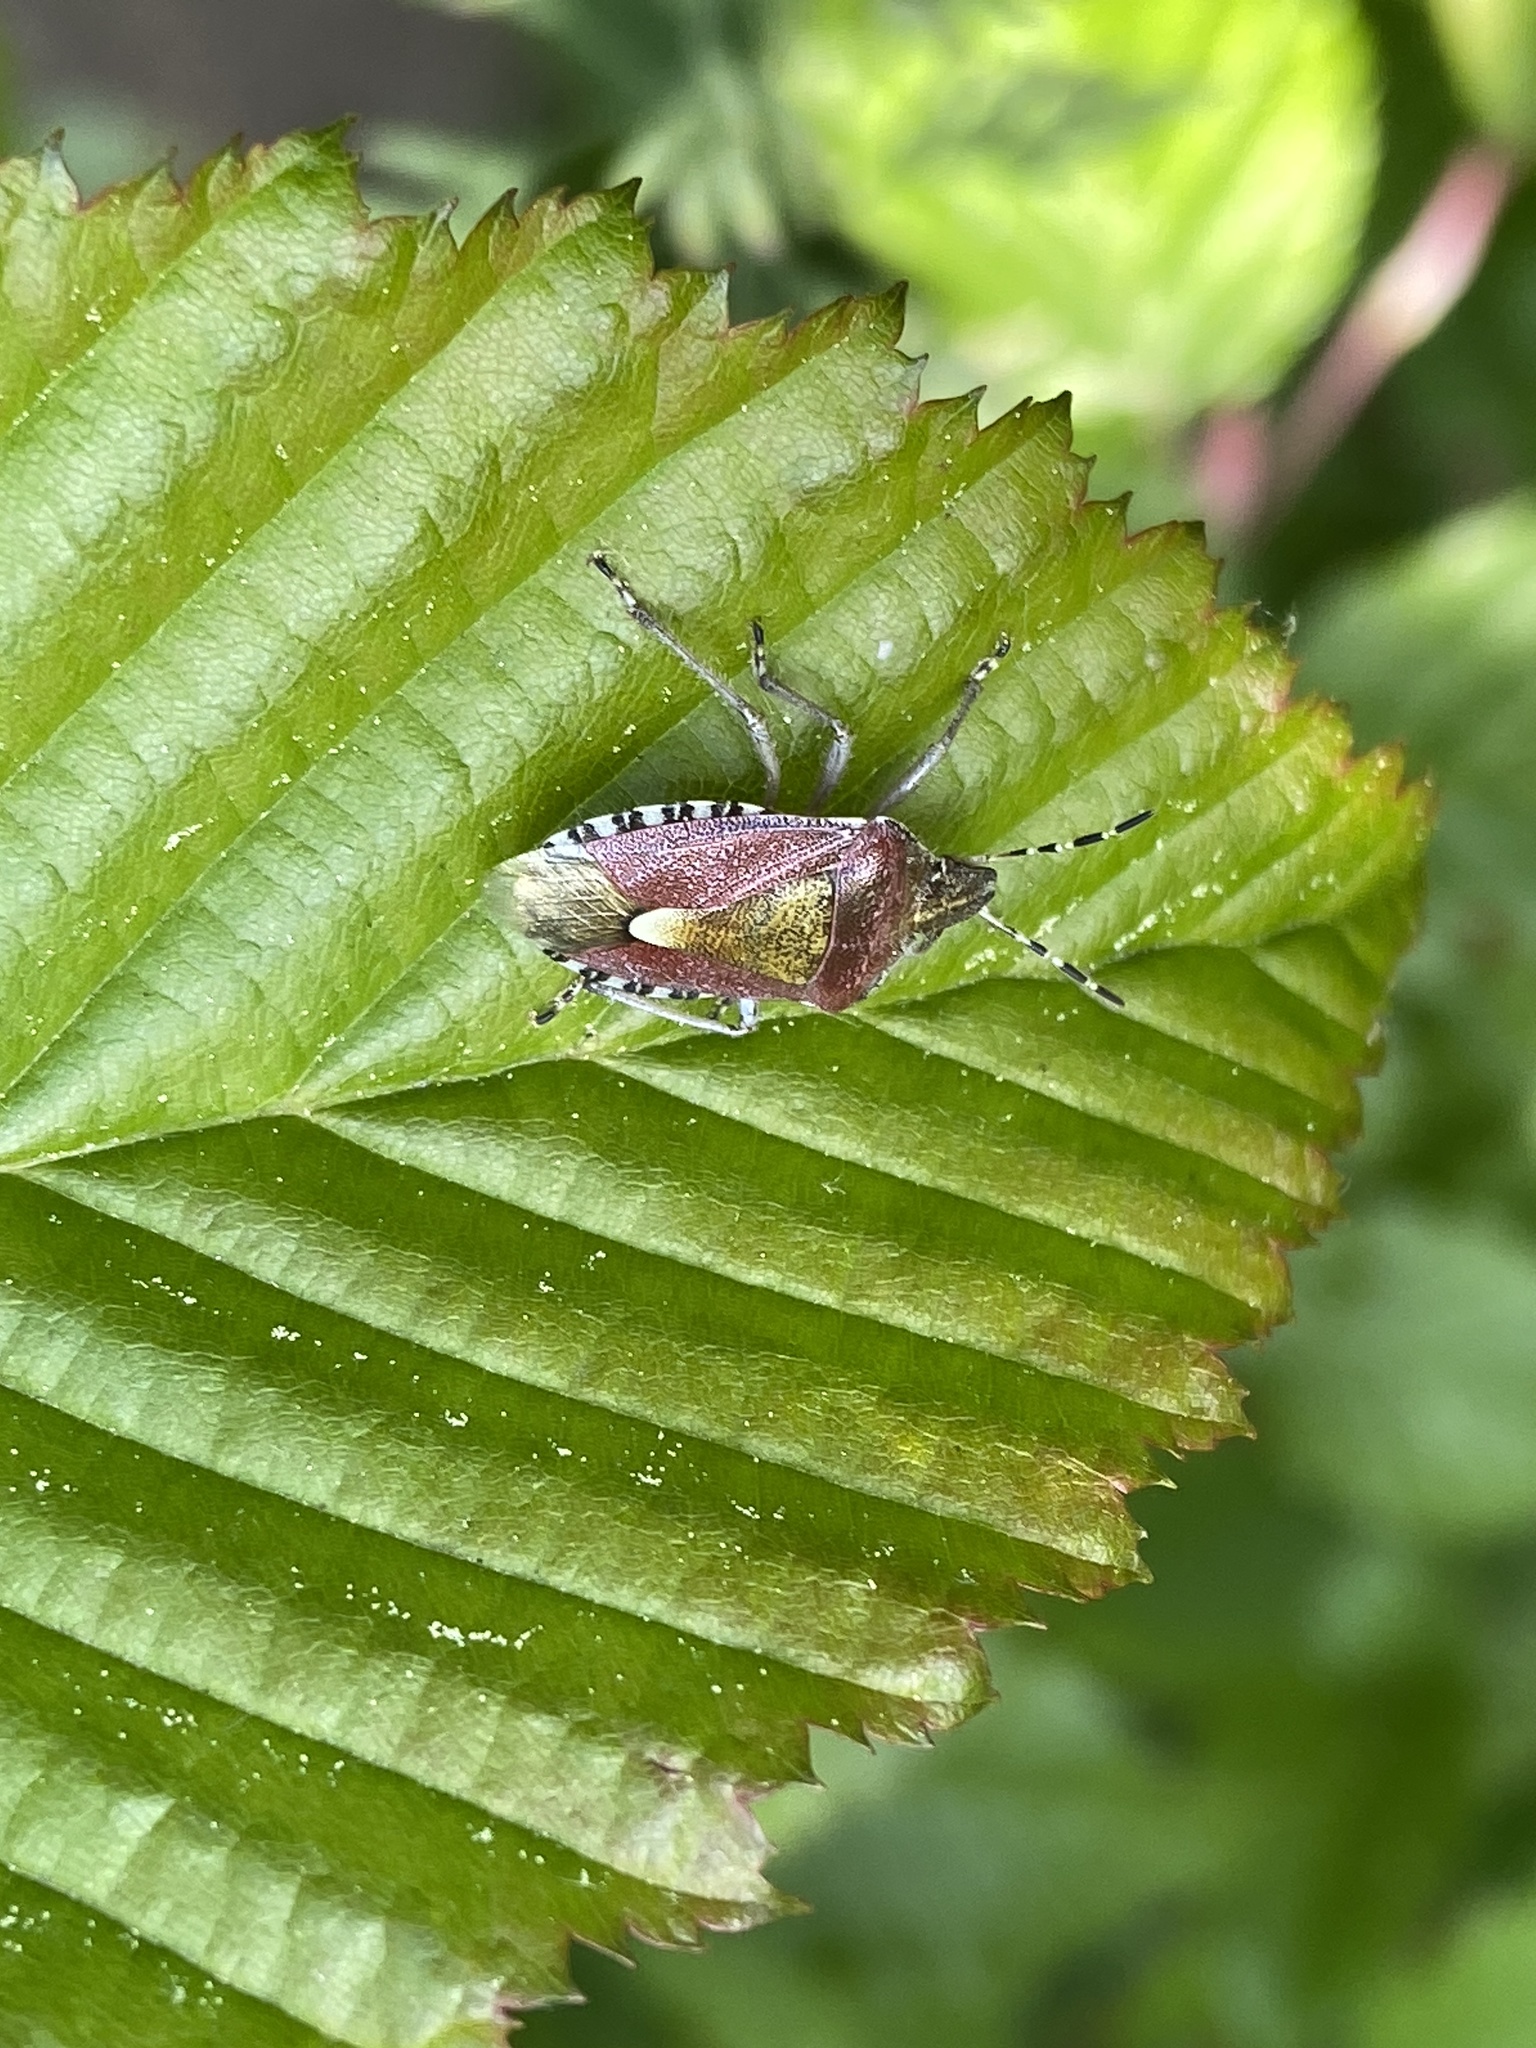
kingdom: Animalia
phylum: Arthropoda
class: Insecta
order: Hemiptera
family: Pentatomidae
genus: Dolycoris
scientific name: Dolycoris baccarum
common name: Sloe bug
